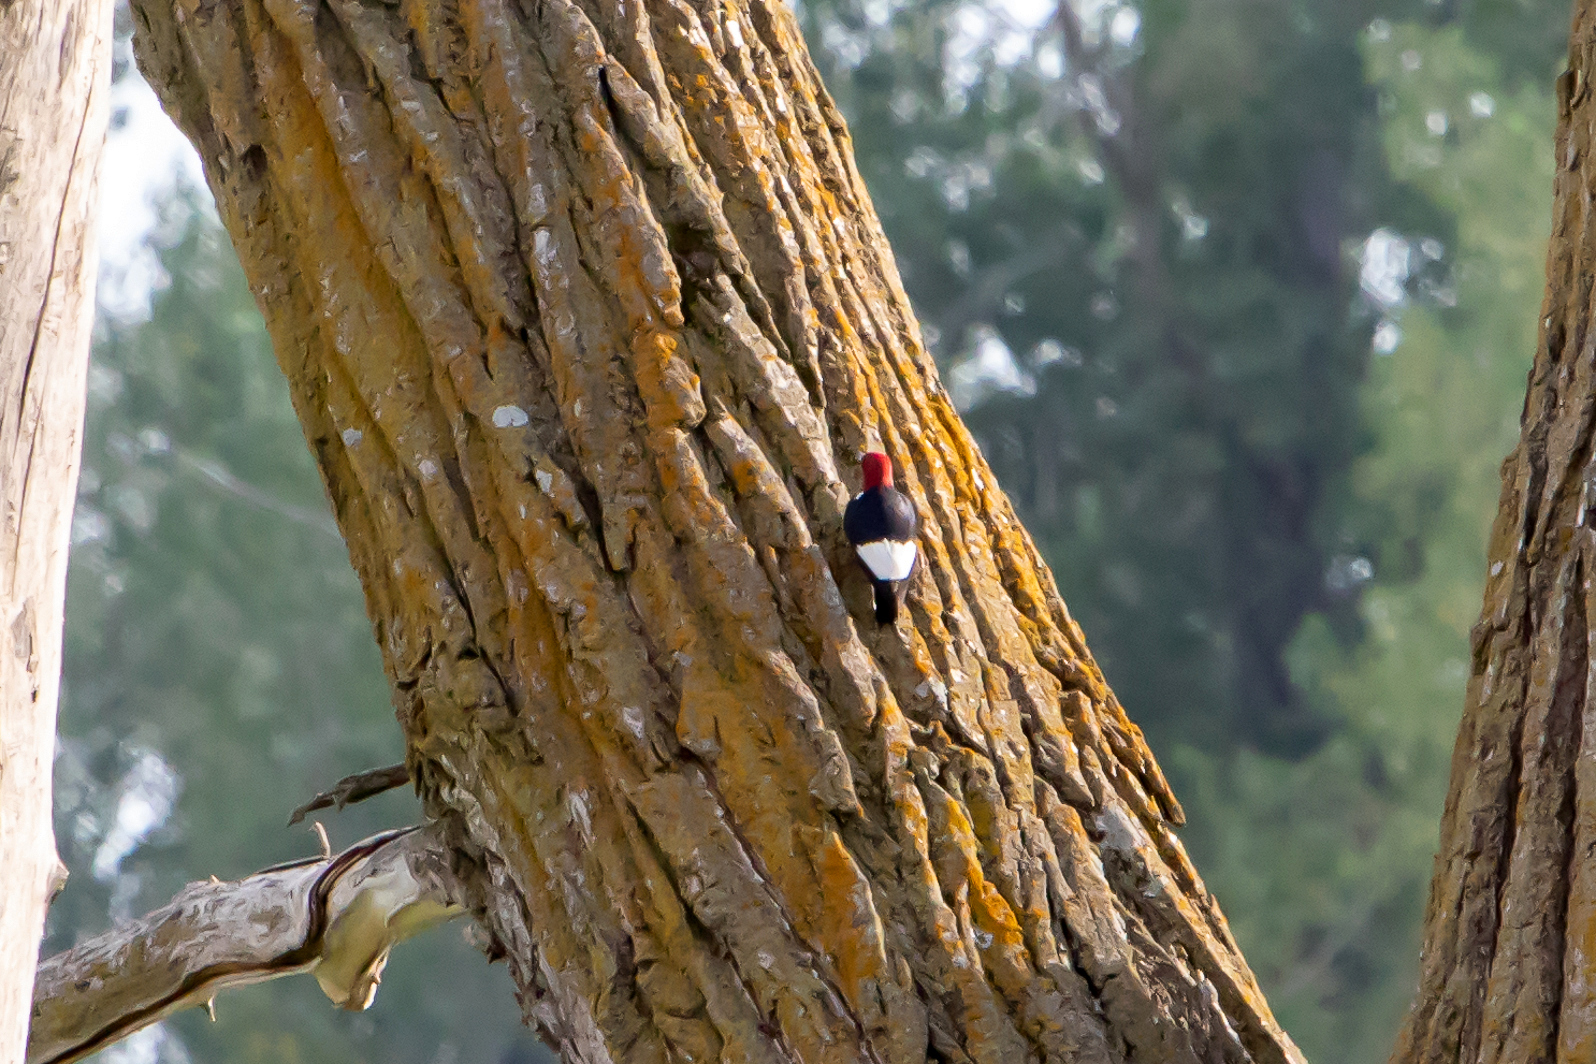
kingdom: Animalia
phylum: Chordata
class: Aves
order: Piciformes
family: Picidae
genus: Melanerpes
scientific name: Melanerpes erythrocephalus
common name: Red-headed woodpecker
